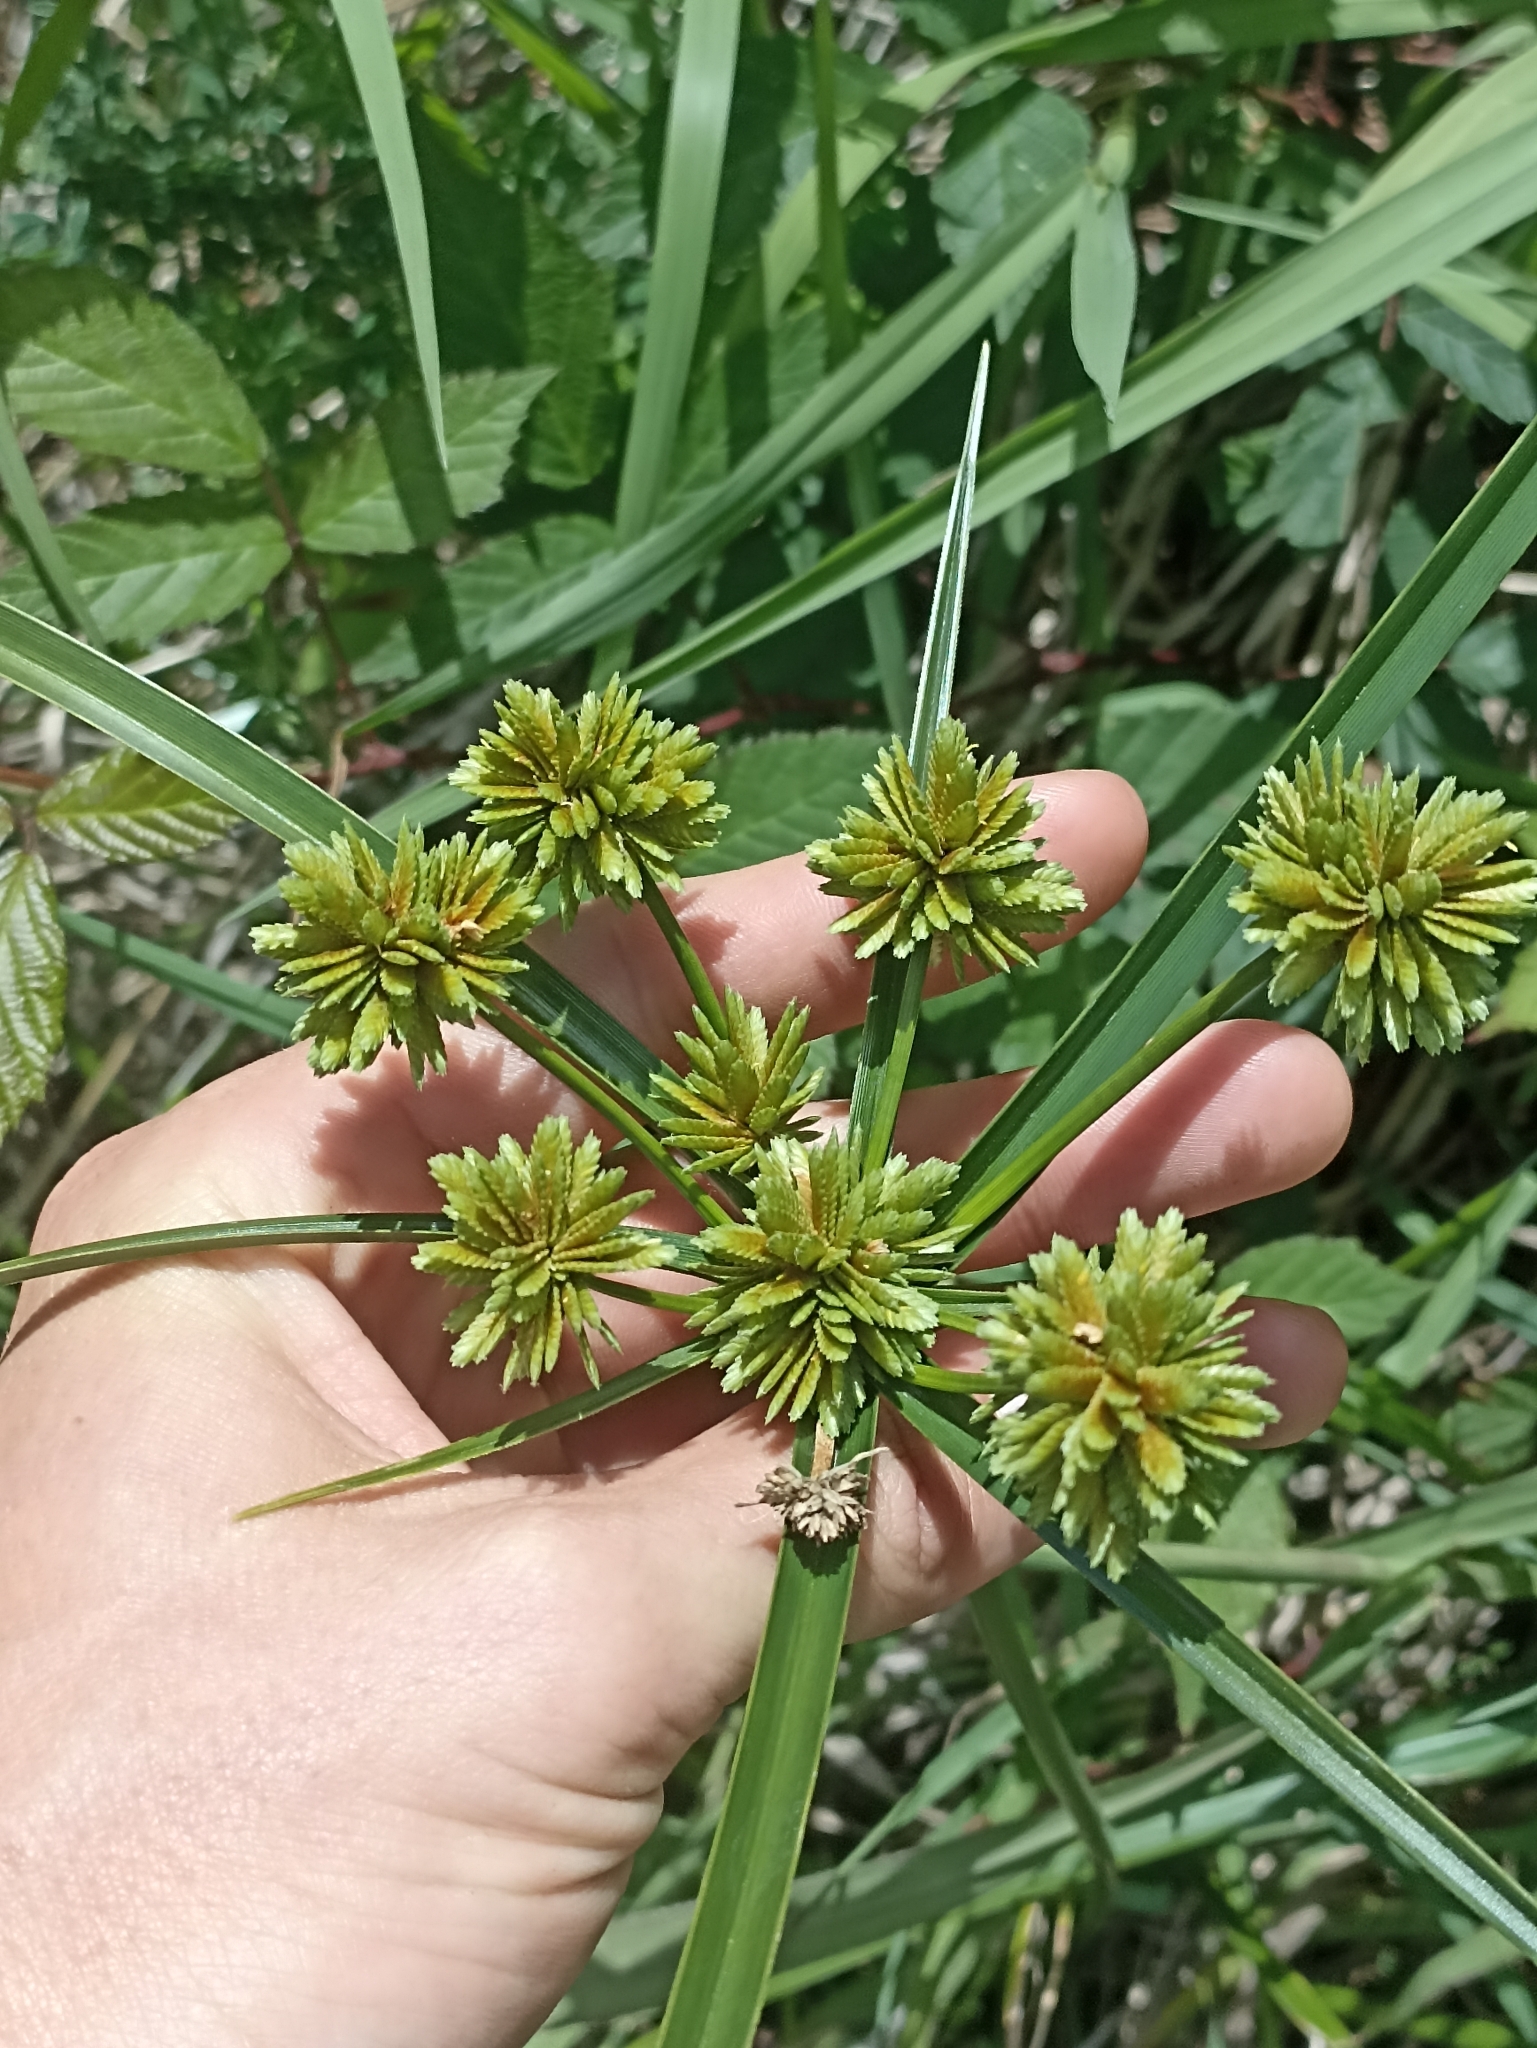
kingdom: Plantae
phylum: Tracheophyta
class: Liliopsida
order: Poales
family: Cyperaceae
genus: Cyperus
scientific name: Cyperus eragrostis
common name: Tall flatsedge
